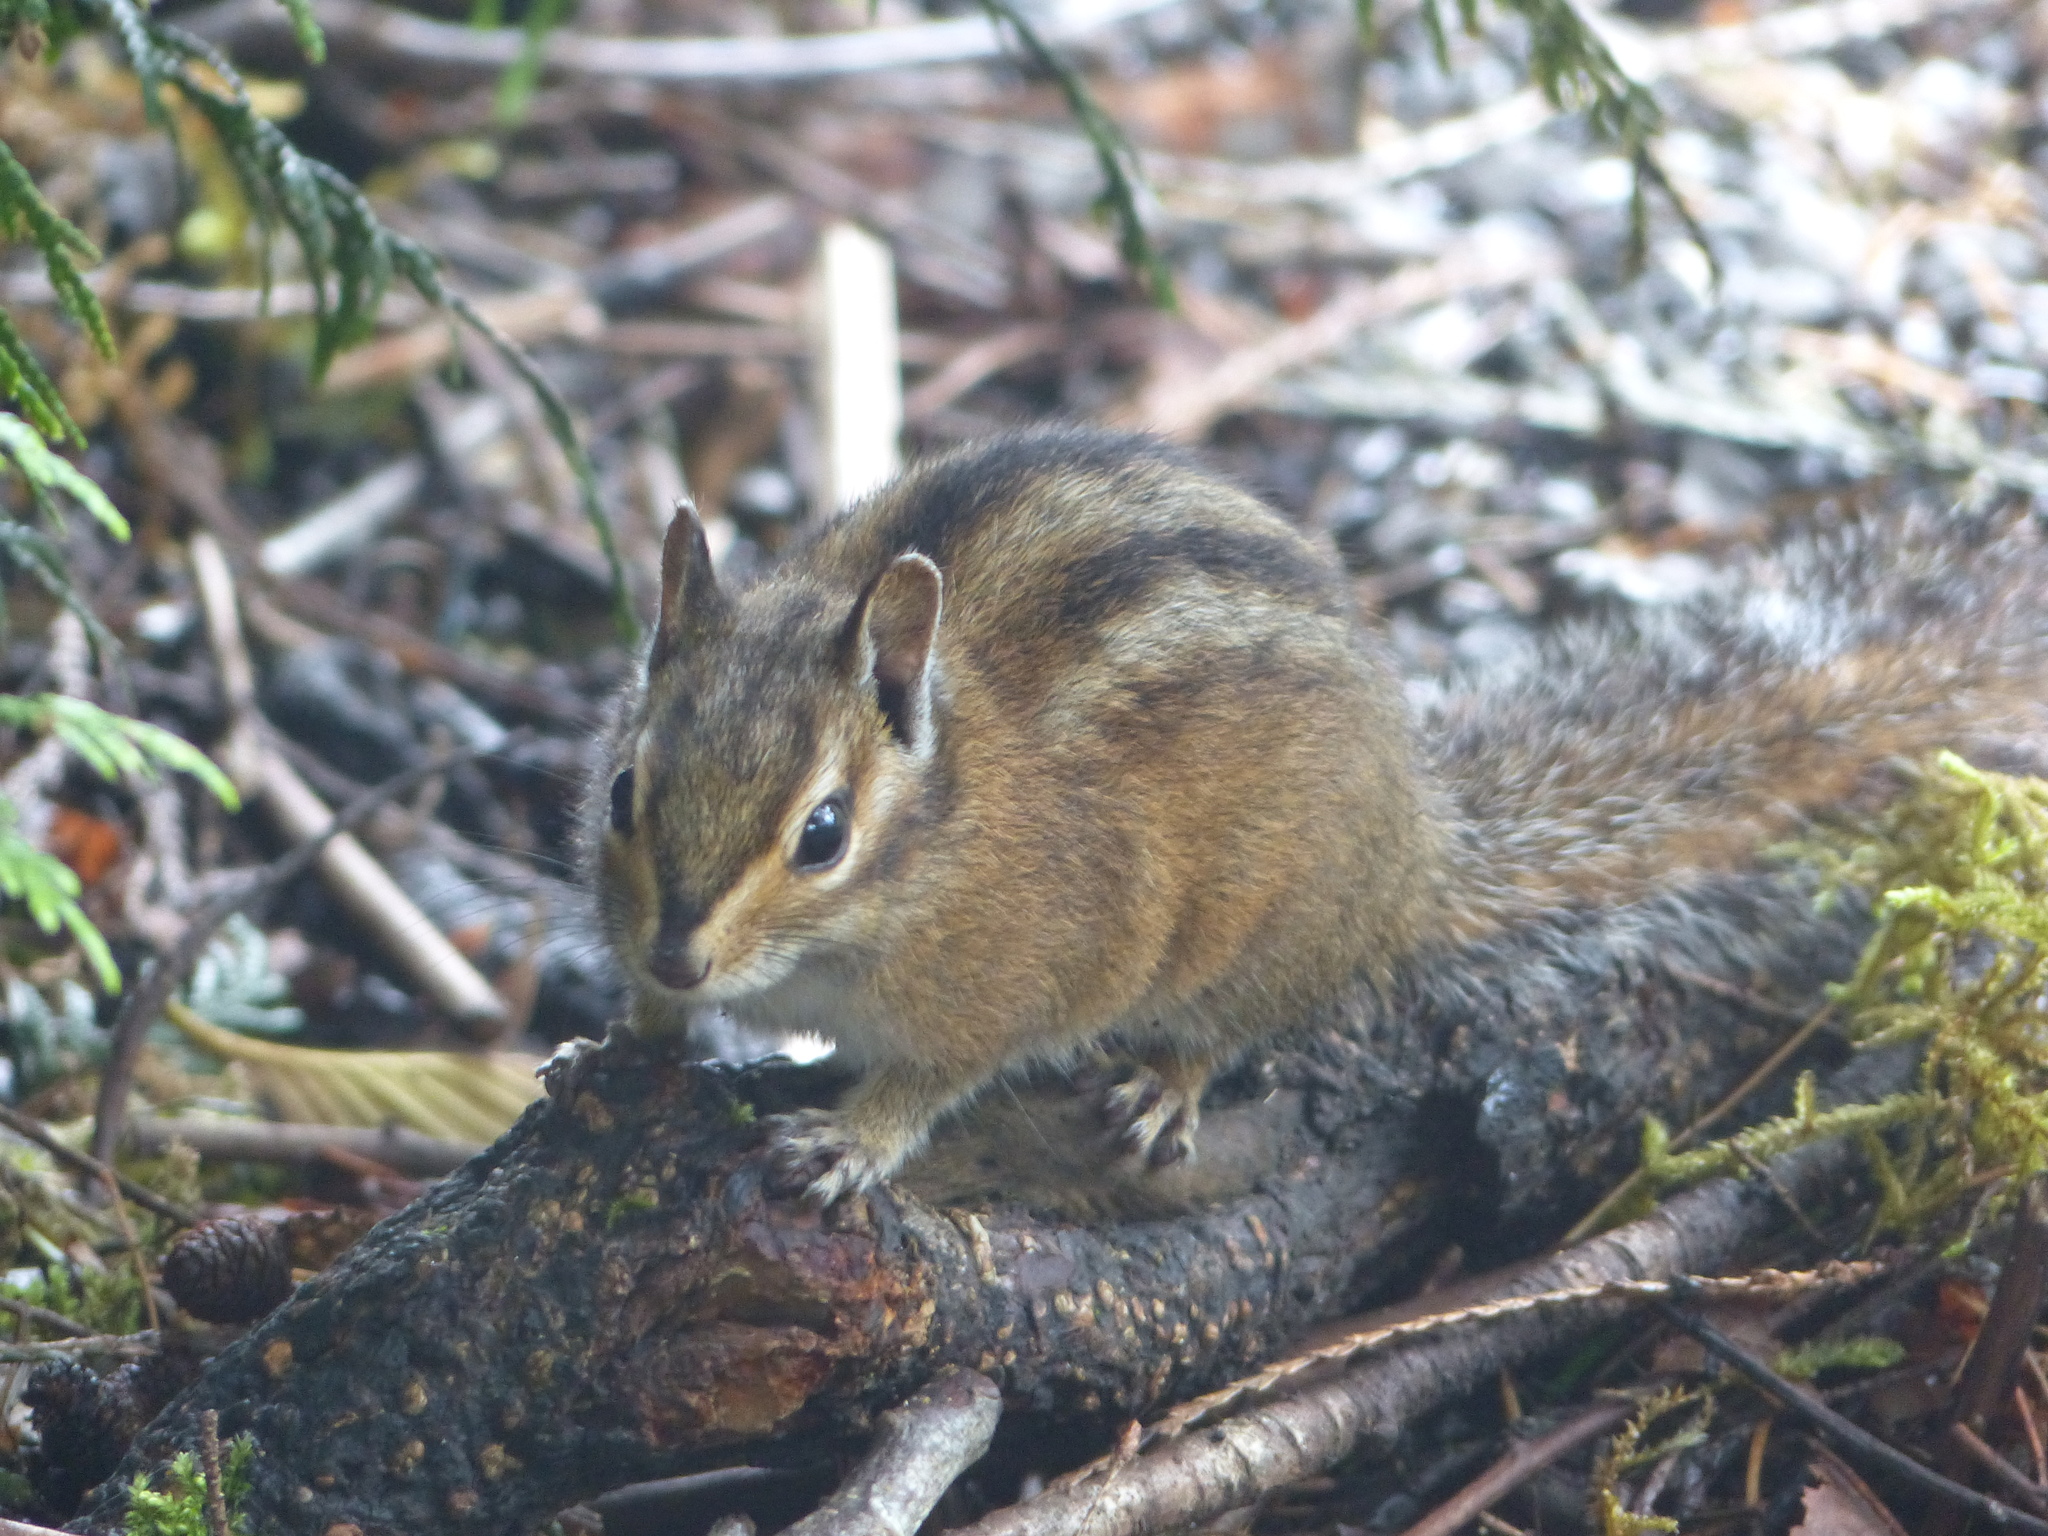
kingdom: Animalia
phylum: Chordata
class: Mammalia
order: Rodentia
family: Sciuridae
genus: Tamias
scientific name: Tamias townsendii
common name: Townsend's chipmunk
